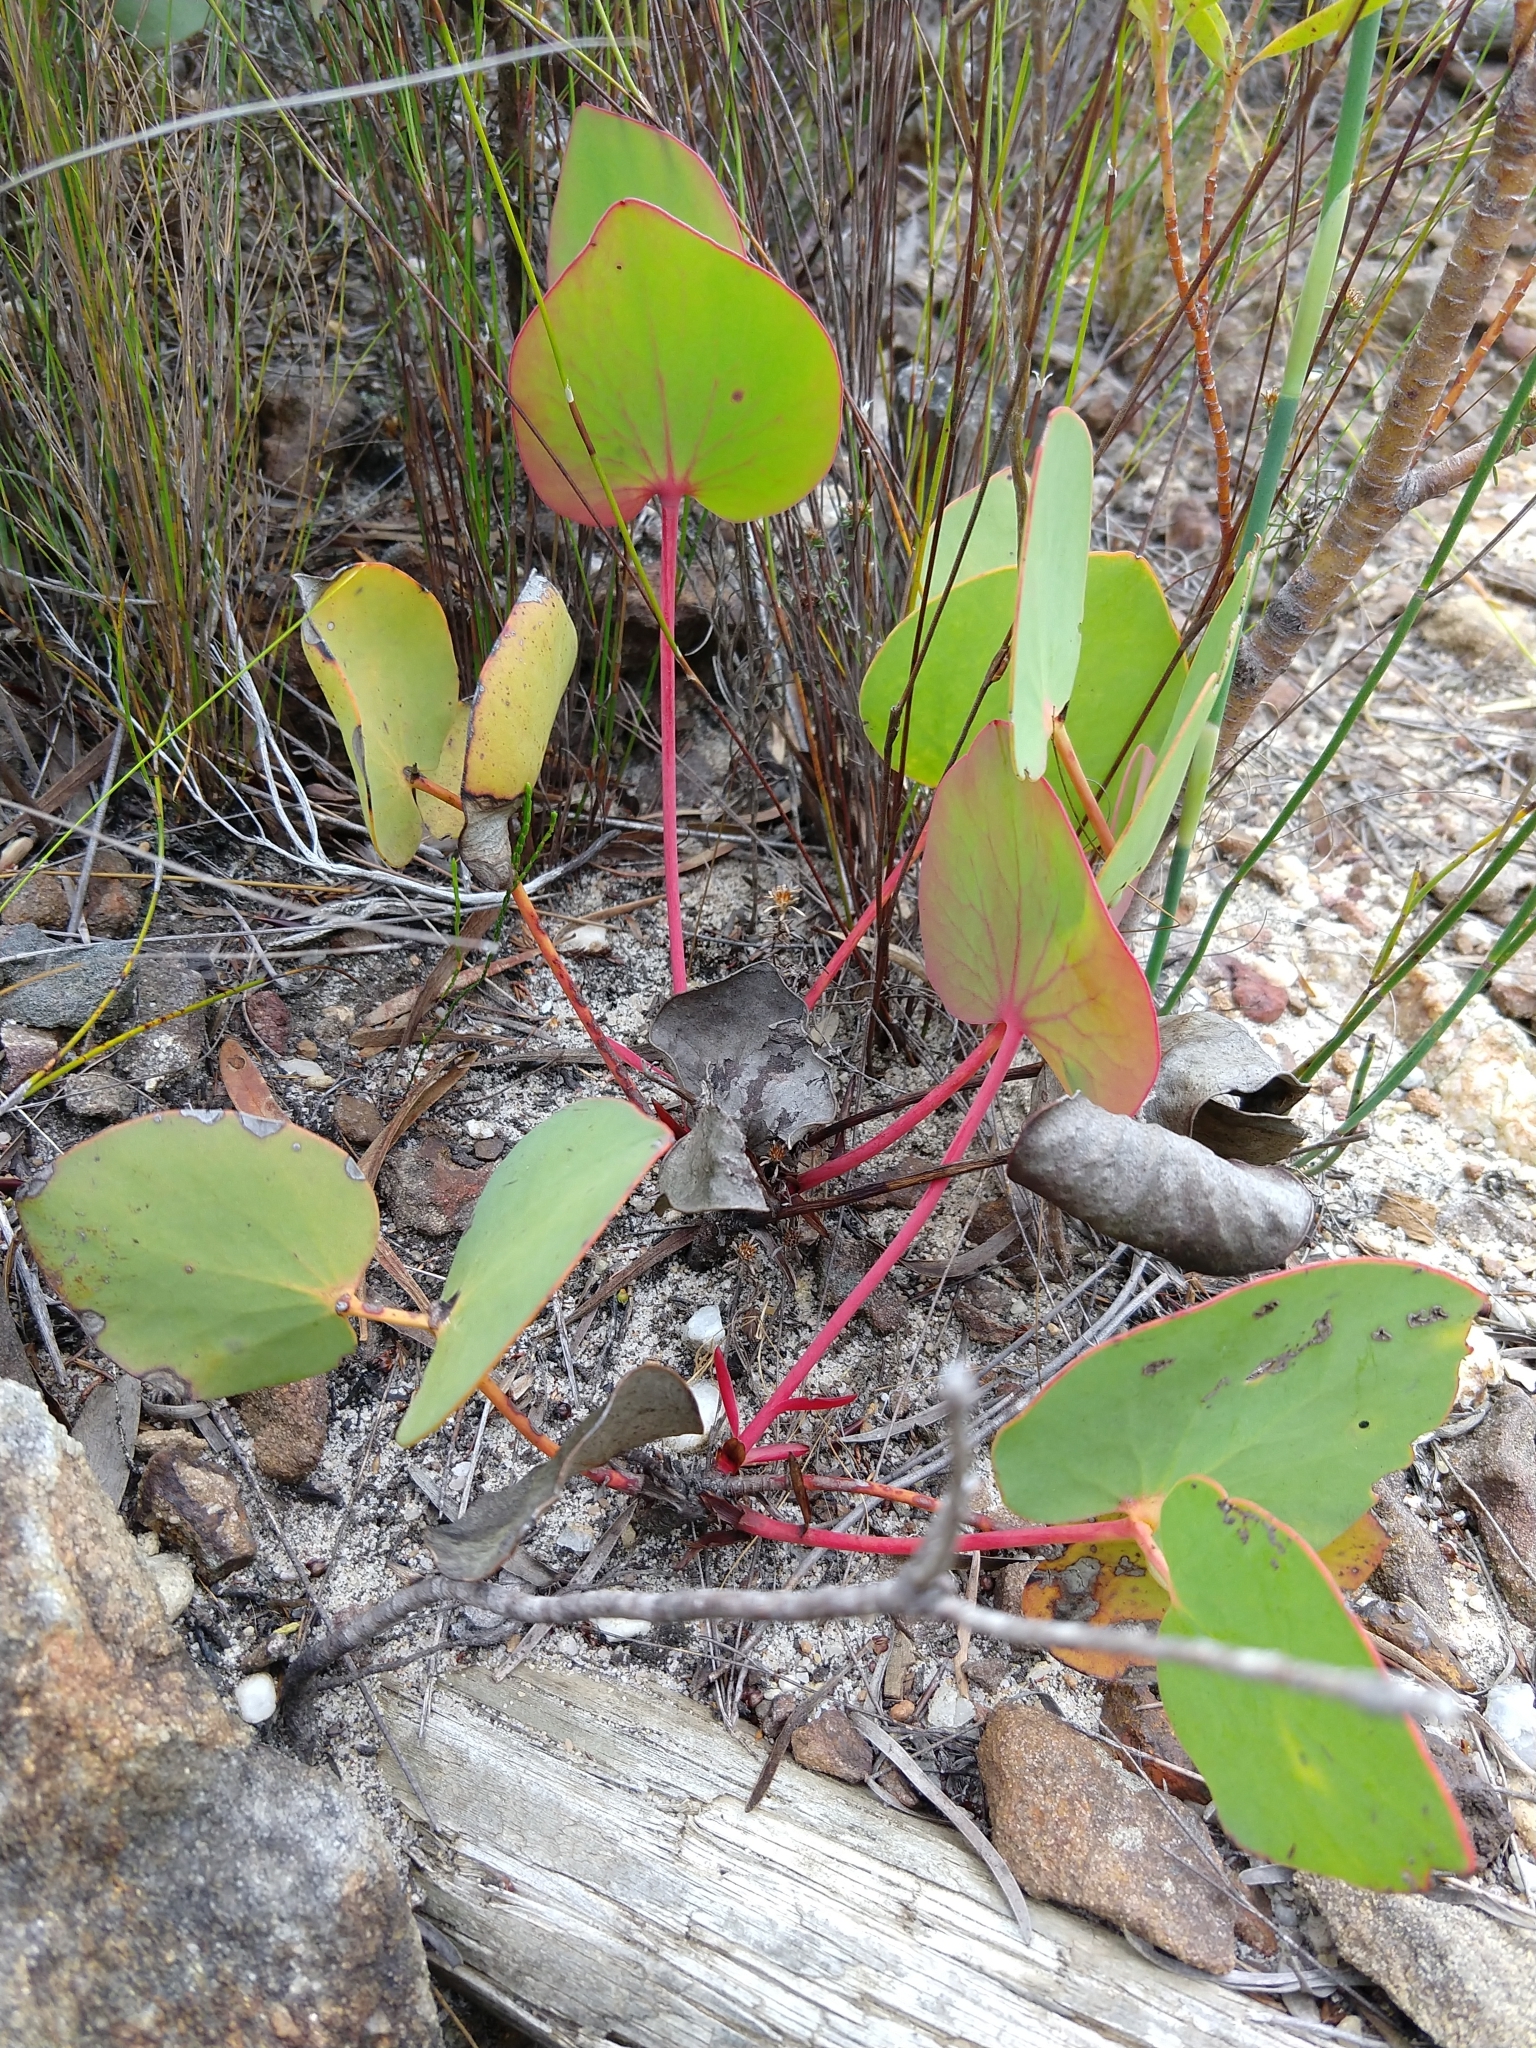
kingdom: Plantae
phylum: Tracheophyta
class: Magnoliopsida
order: Proteales
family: Proteaceae
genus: Protea
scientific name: Protea cordata
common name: Heart-leaf sugarbush
